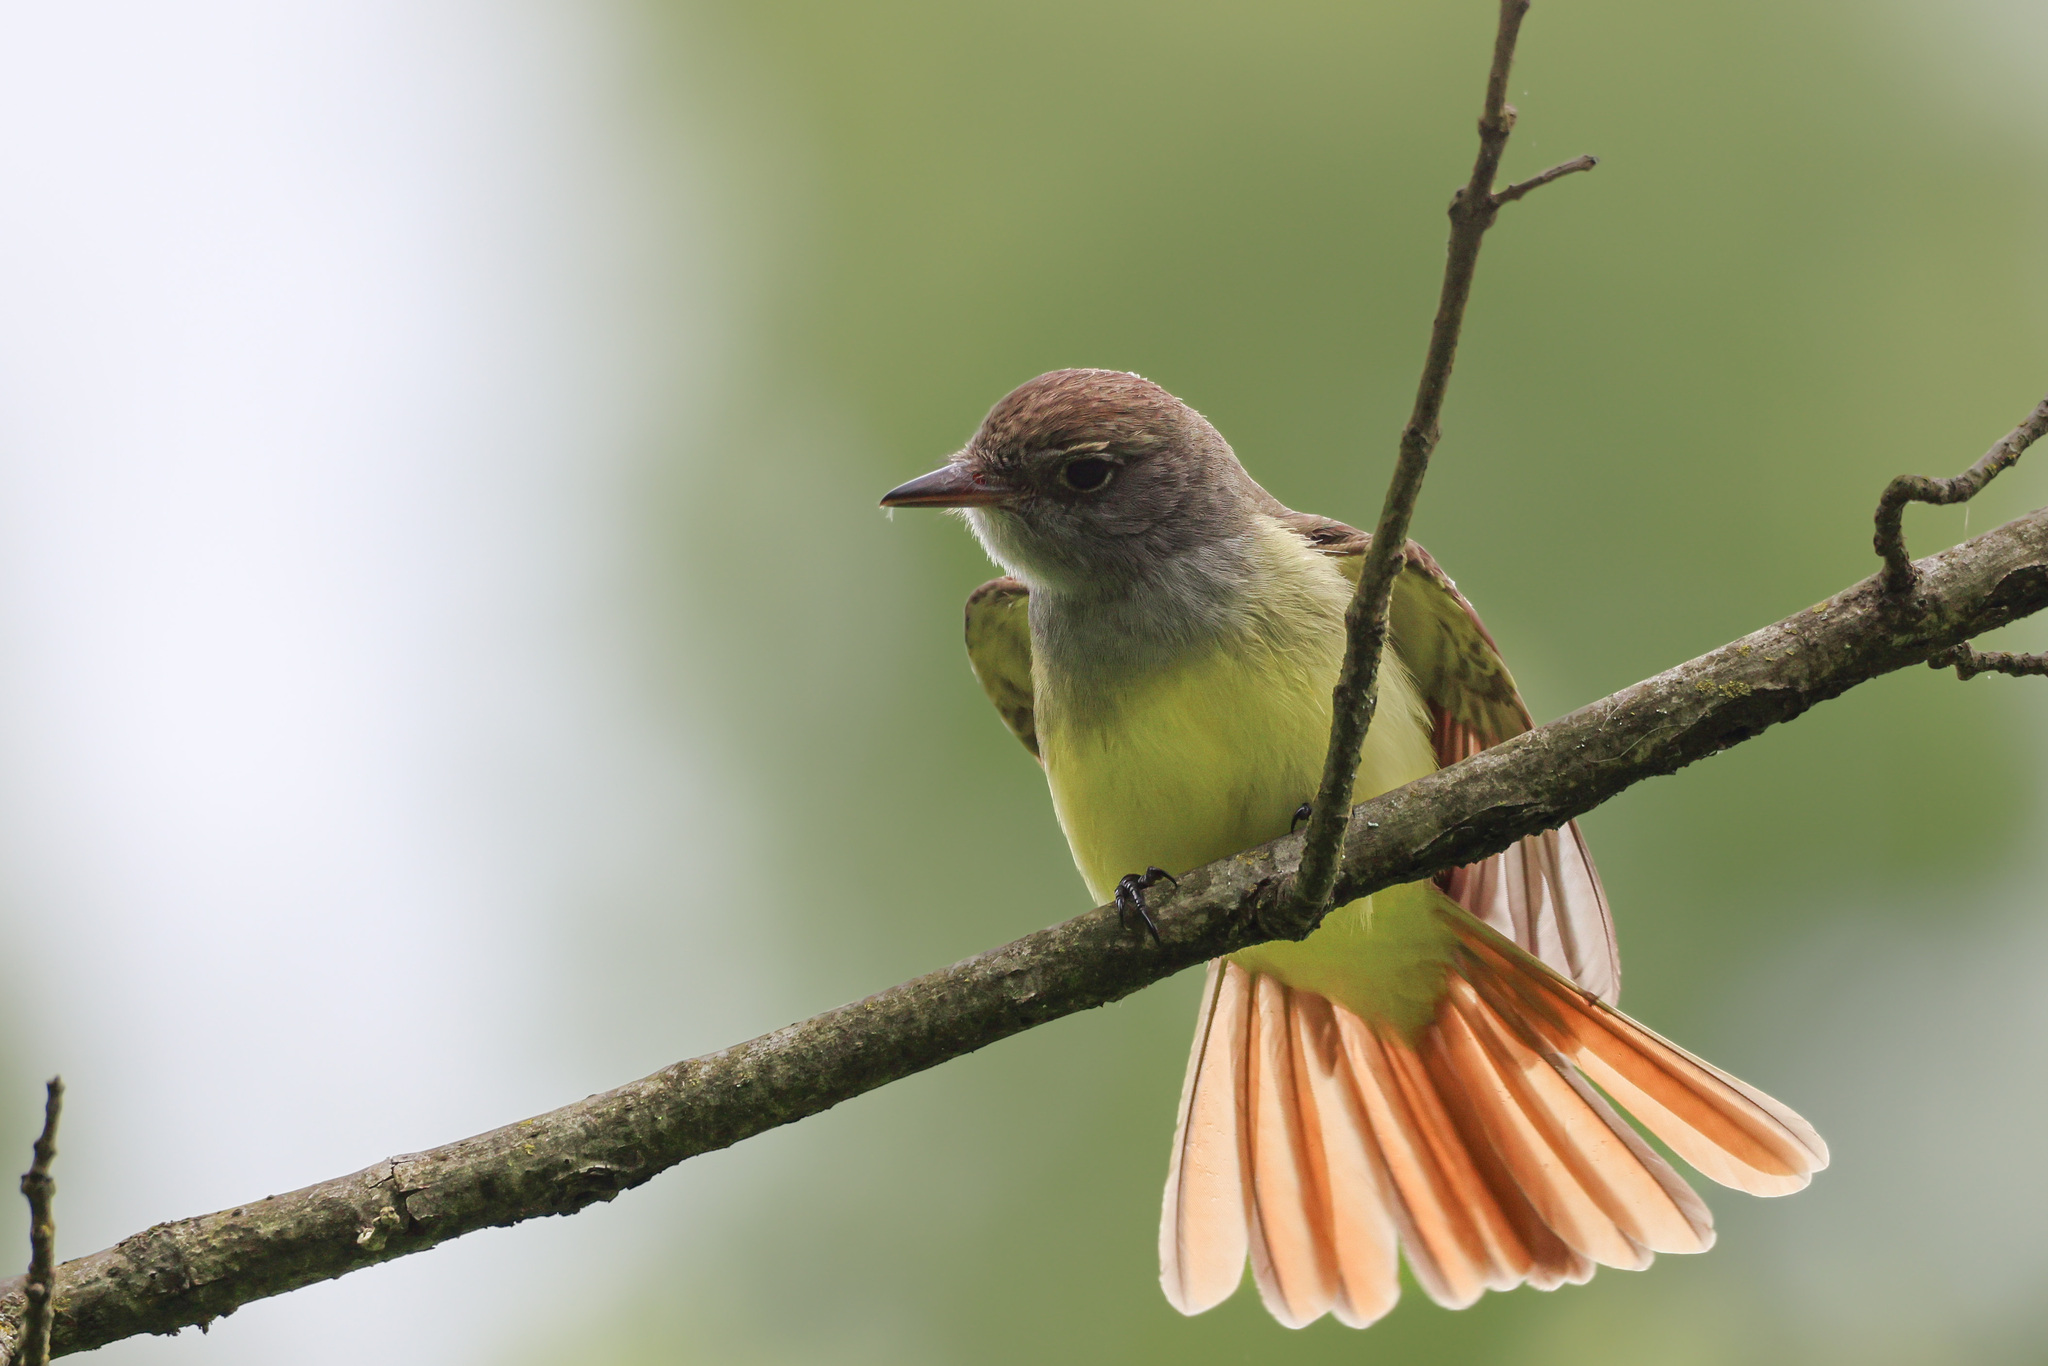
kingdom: Animalia
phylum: Chordata
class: Aves
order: Passeriformes
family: Tyrannidae
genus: Myiarchus
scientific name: Myiarchus crinitus
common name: Great crested flycatcher
